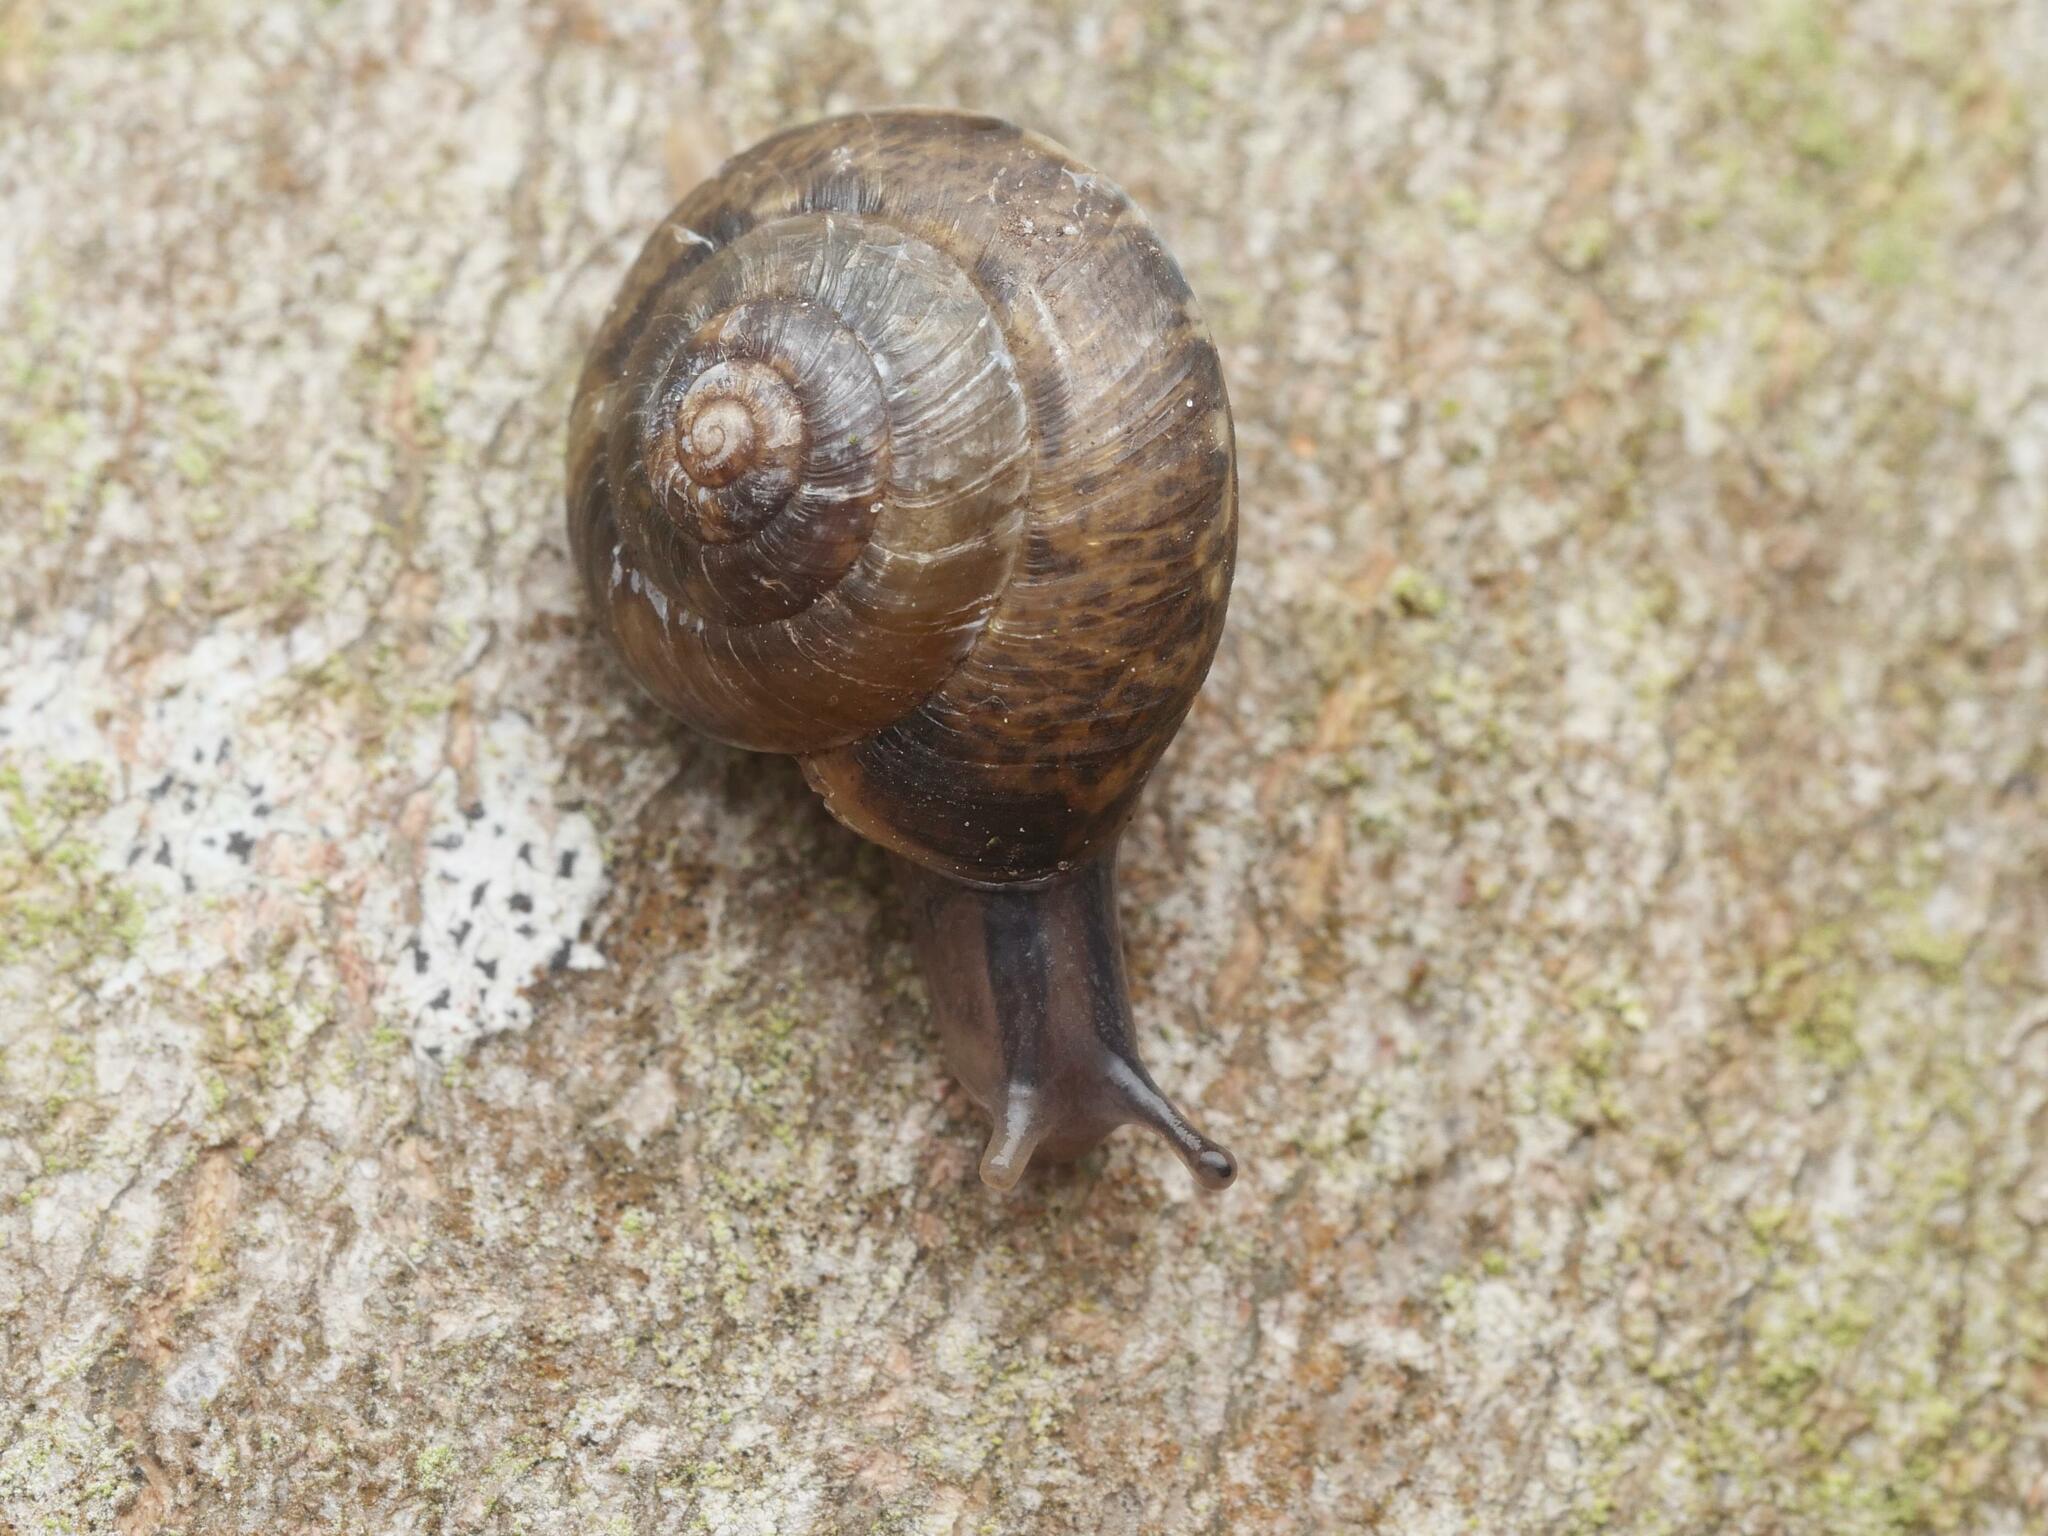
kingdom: Animalia
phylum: Mollusca
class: Gastropoda
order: Stylommatophora
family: Hygromiidae
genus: Hygromia
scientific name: Hygromia cinctella
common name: Girdled snail
